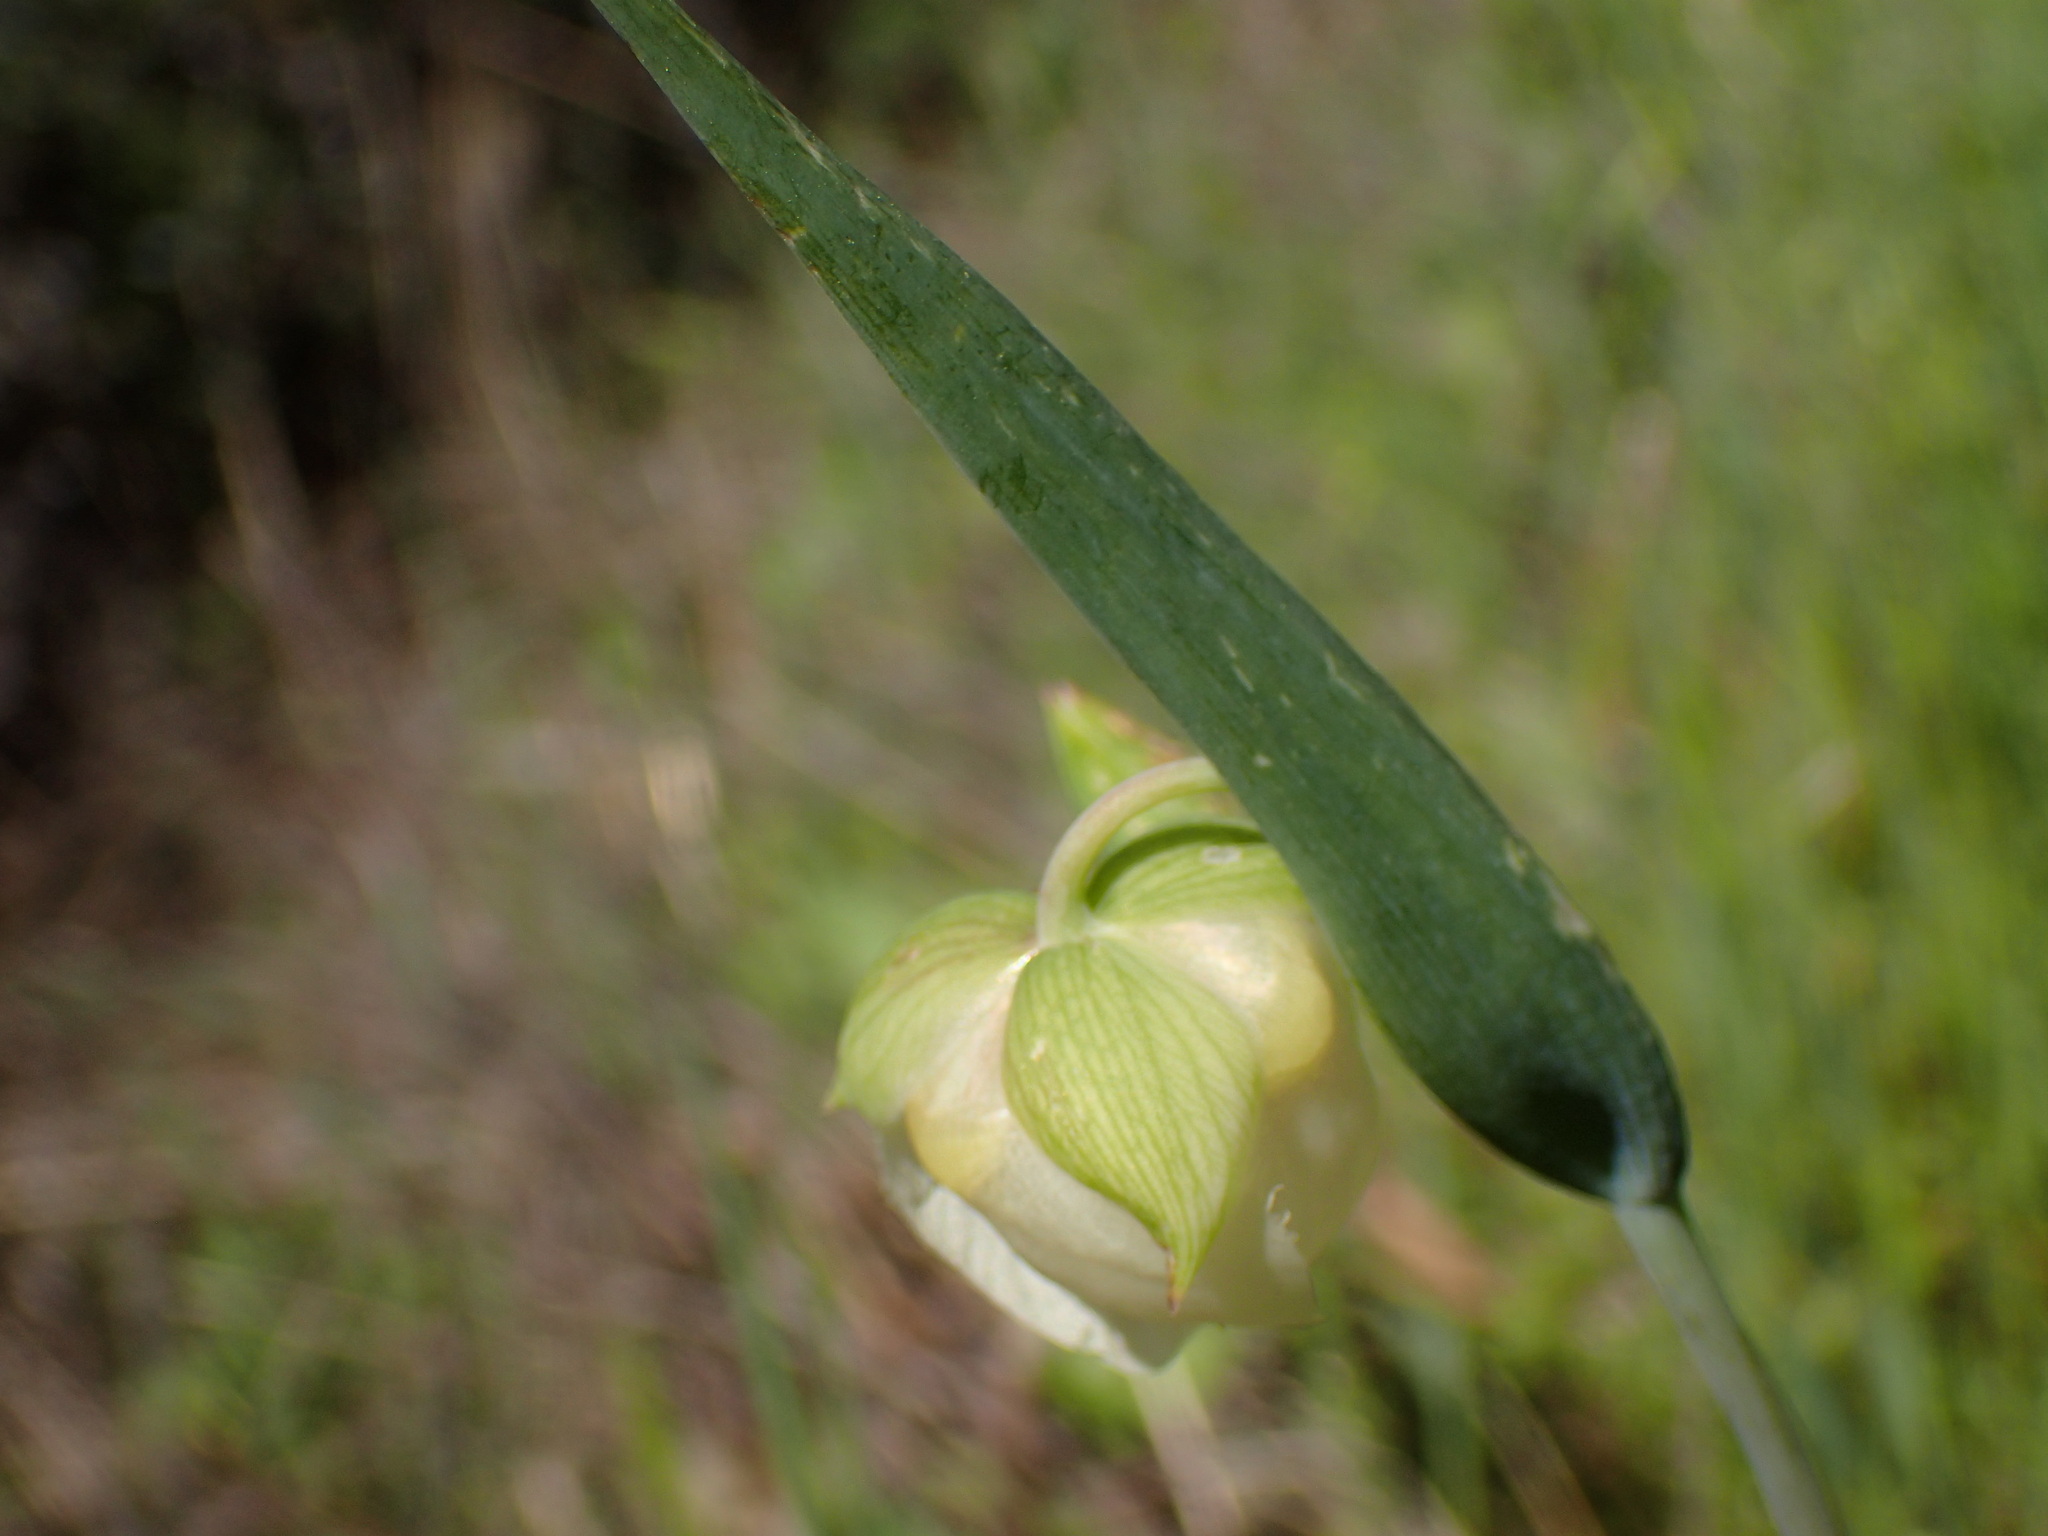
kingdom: Plantae
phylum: Tracheophyta
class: Liliopsida
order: Liliales
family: Liliaceae
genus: Calochortus
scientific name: Calochortus albus
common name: Fairy-lantern
